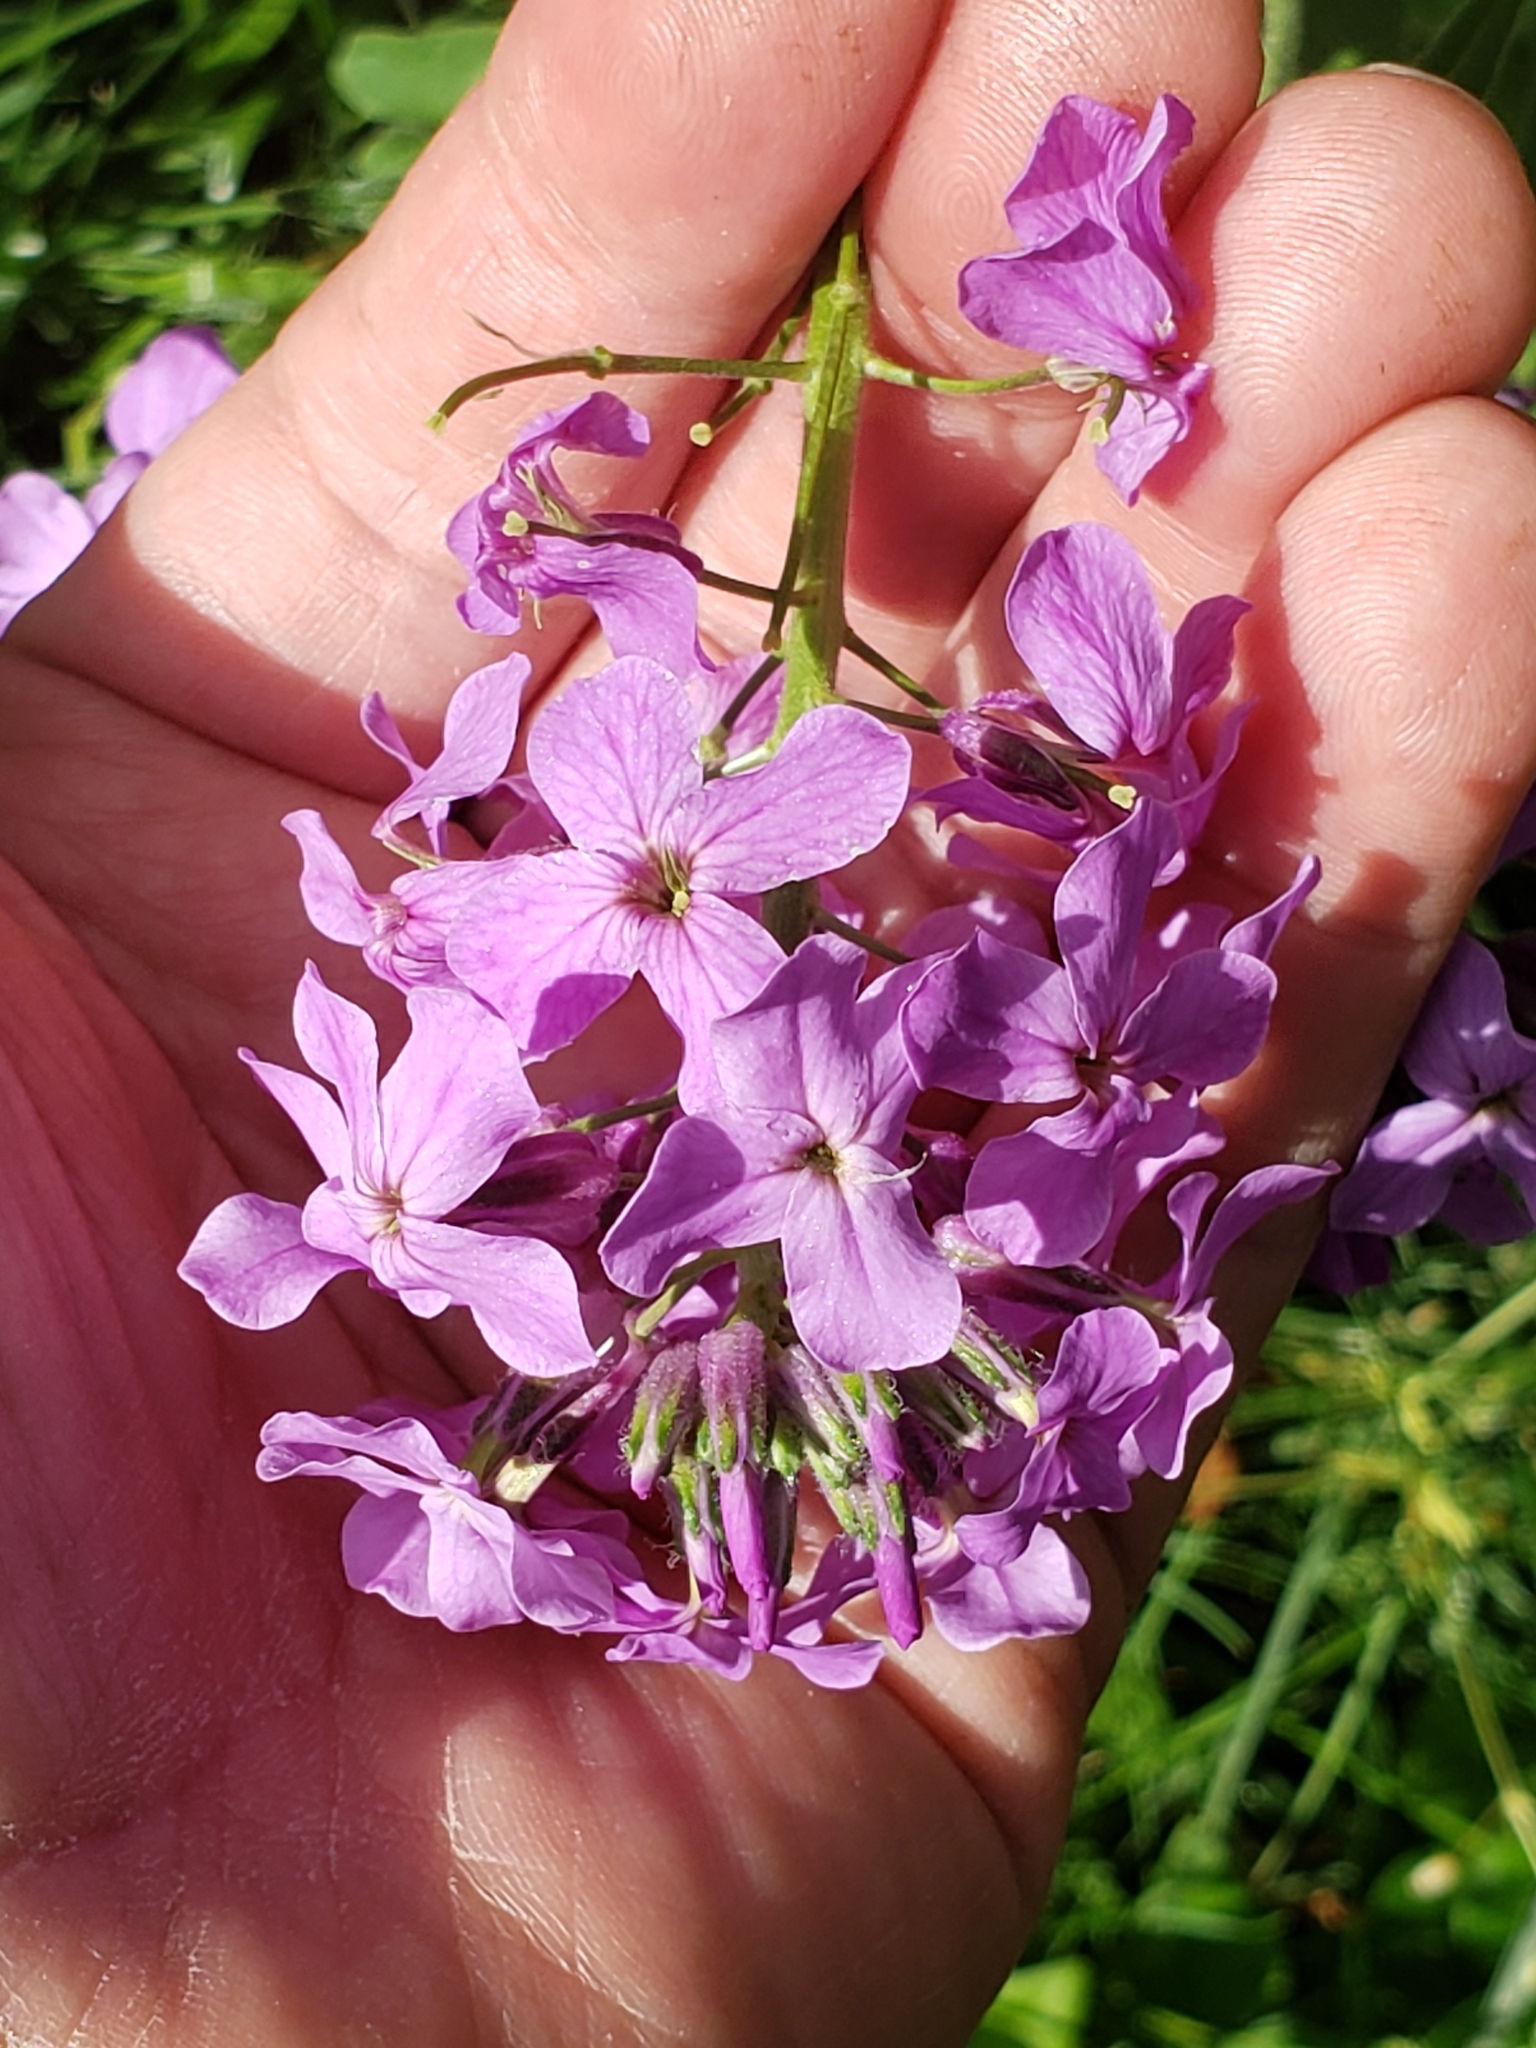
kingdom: Plantae
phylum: Tracheophyta
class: Magnoliopsida
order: Brassicales
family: Brassicaceae
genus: Hesperis
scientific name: Hesperis matronalis
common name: Dame's-violet
